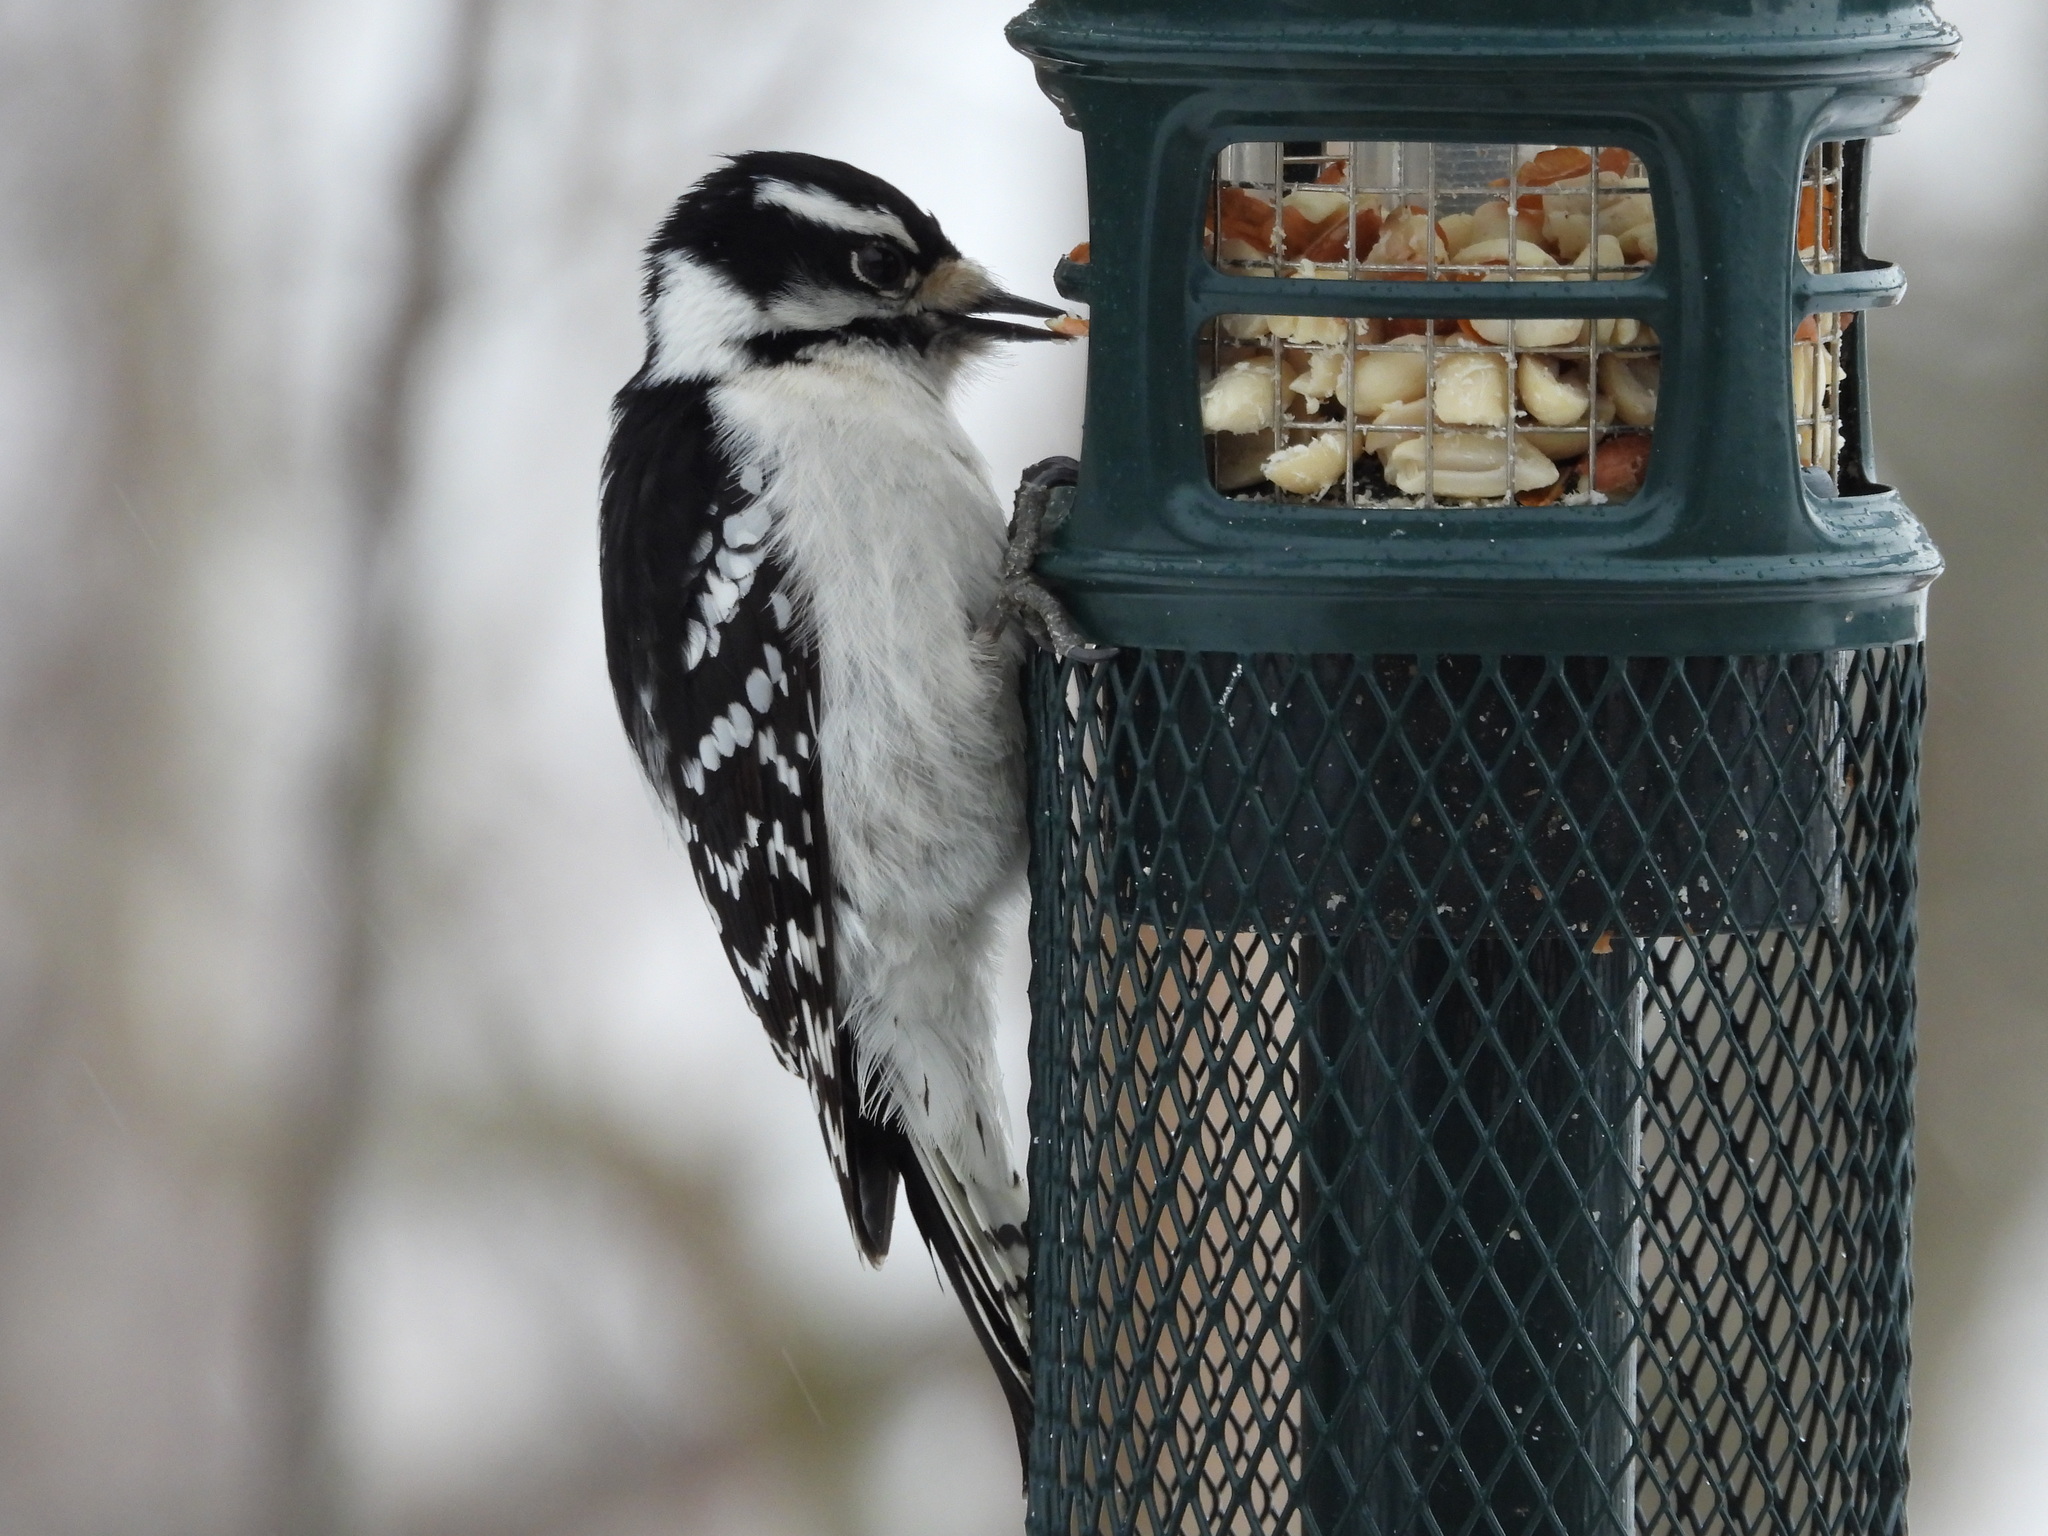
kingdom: Animalia
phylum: Chordata
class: Aves
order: Piciformes
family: Picidae
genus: Dryobates
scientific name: Dryobates pubescens
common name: Downy woodpecker
